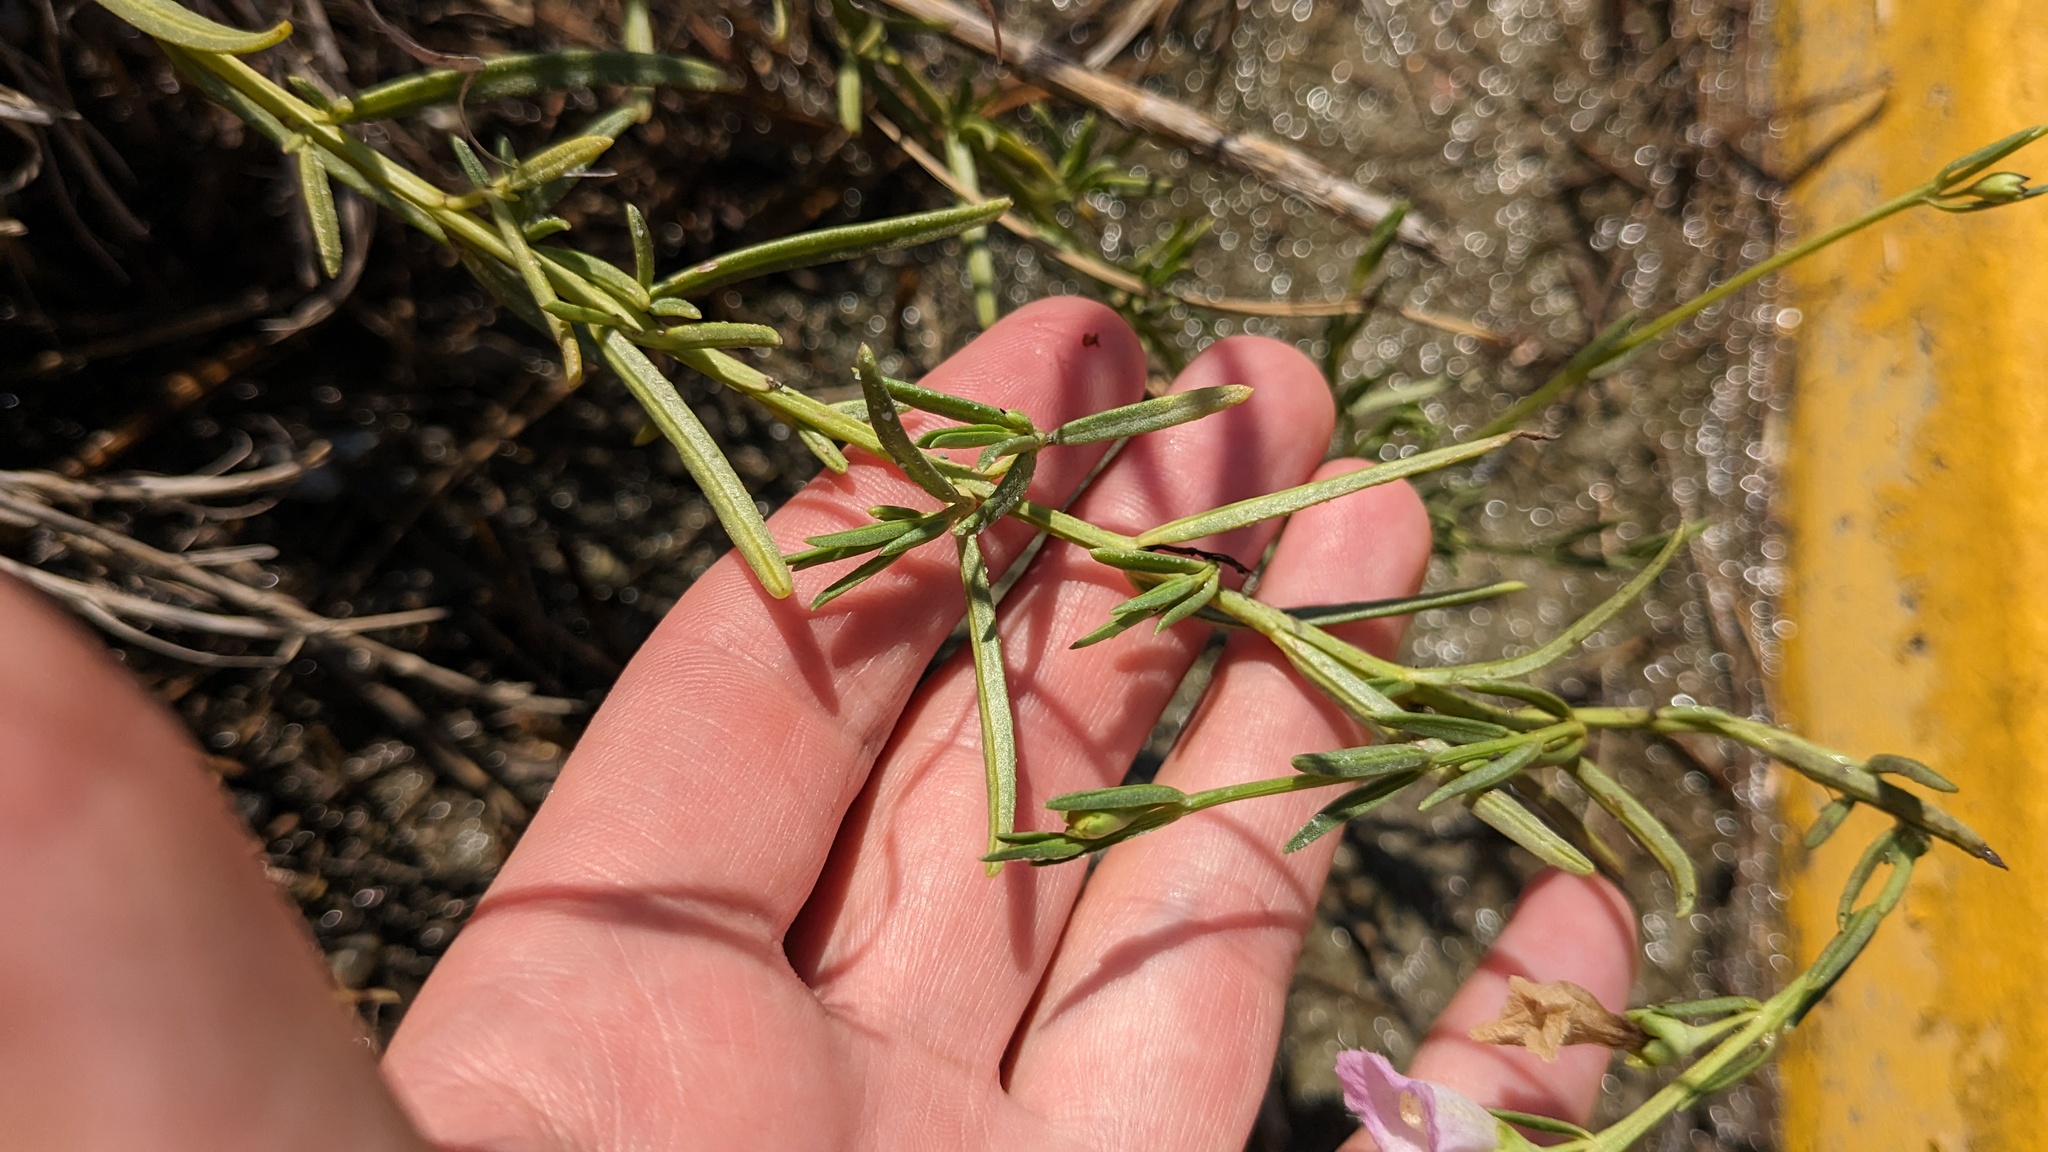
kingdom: Plantae
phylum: Tracheophyta
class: Magnoliopsida
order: Lamiales
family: Orobanchaceae
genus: Agalinis
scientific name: Agalinis maritima
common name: Saltmarsh agalinis
